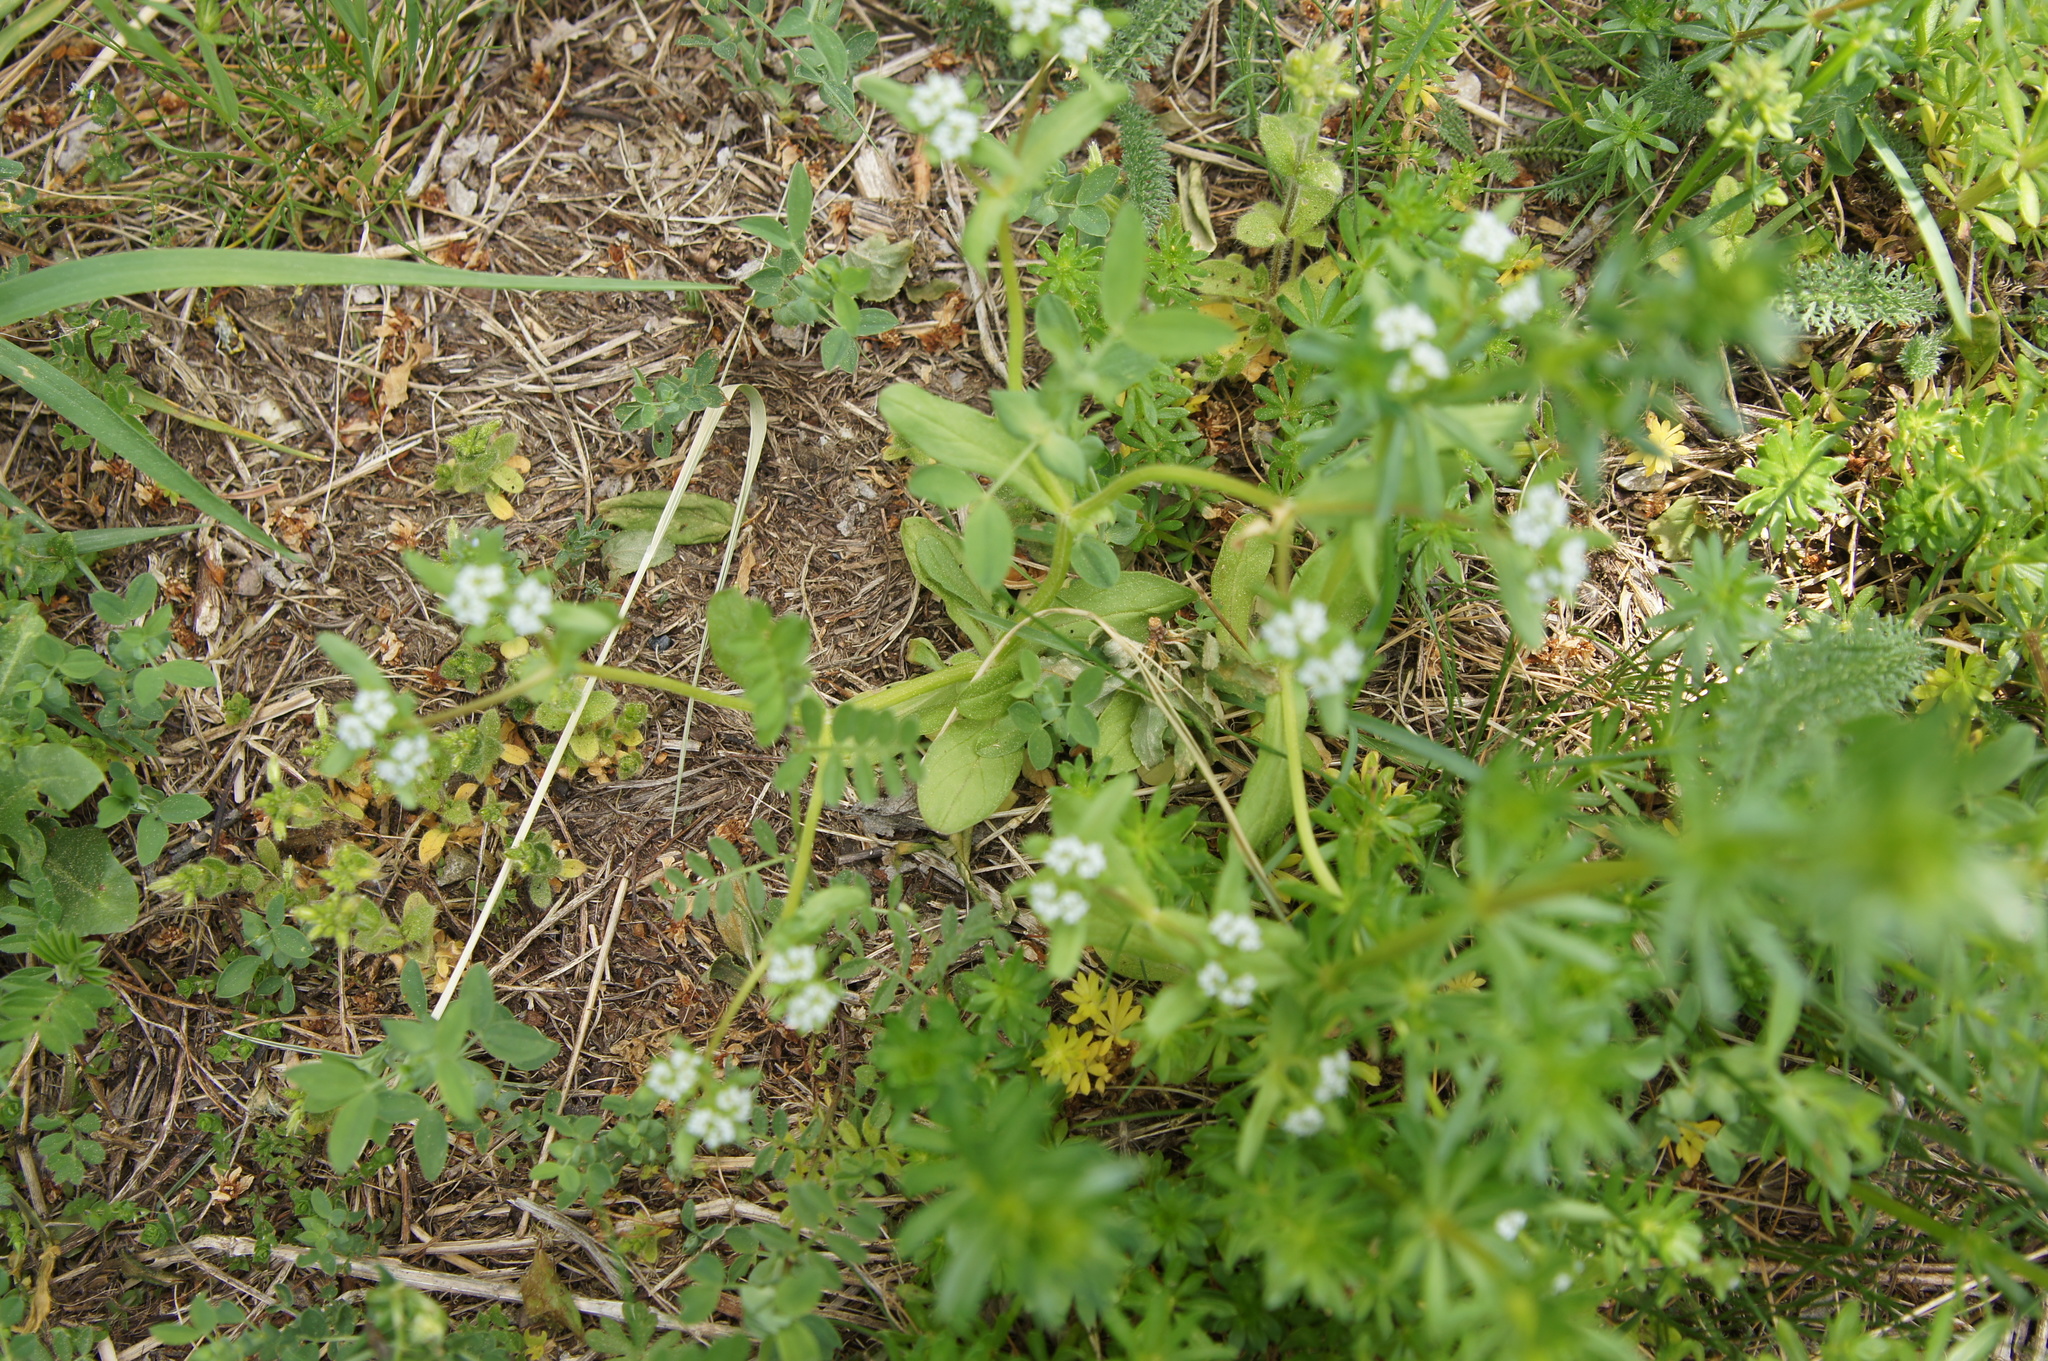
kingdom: Plantae
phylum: Tracheophyta
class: Magnoliopsida
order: Dipsacales
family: Caprifoliaceae
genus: Valerianella
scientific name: Valerianella locusta
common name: Common cornsalad
